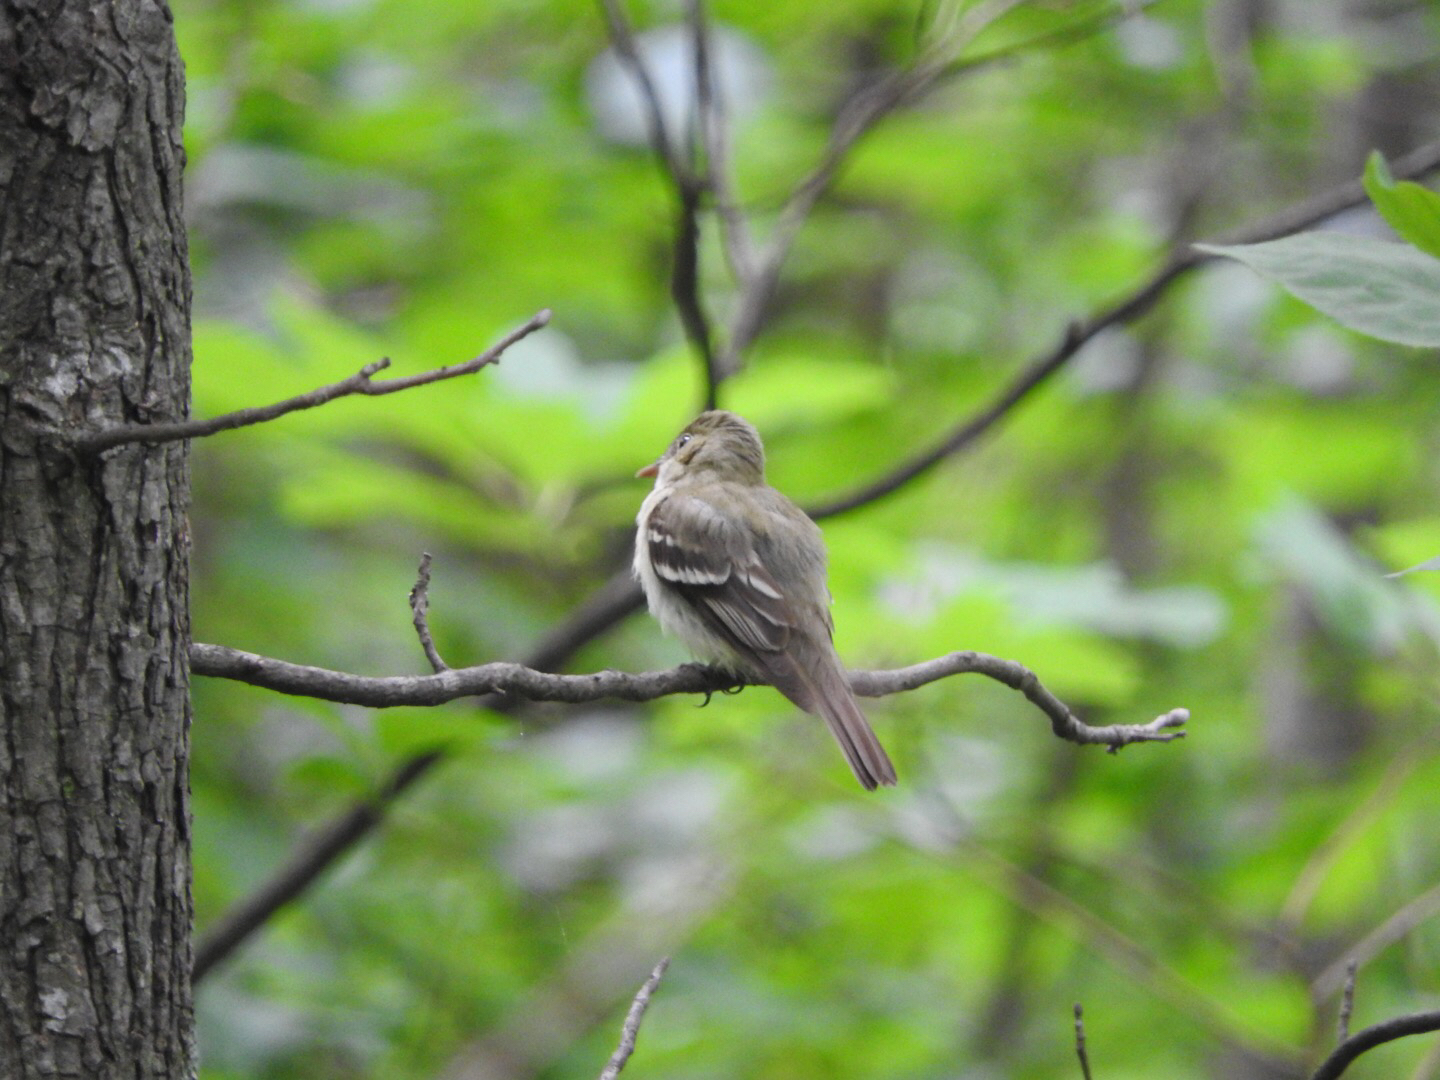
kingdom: Animalia
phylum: Chordata
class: Aves
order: Passeriformes
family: Tyrannidae
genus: Contopus
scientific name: Contopus virens
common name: Eastern wood-pewee
